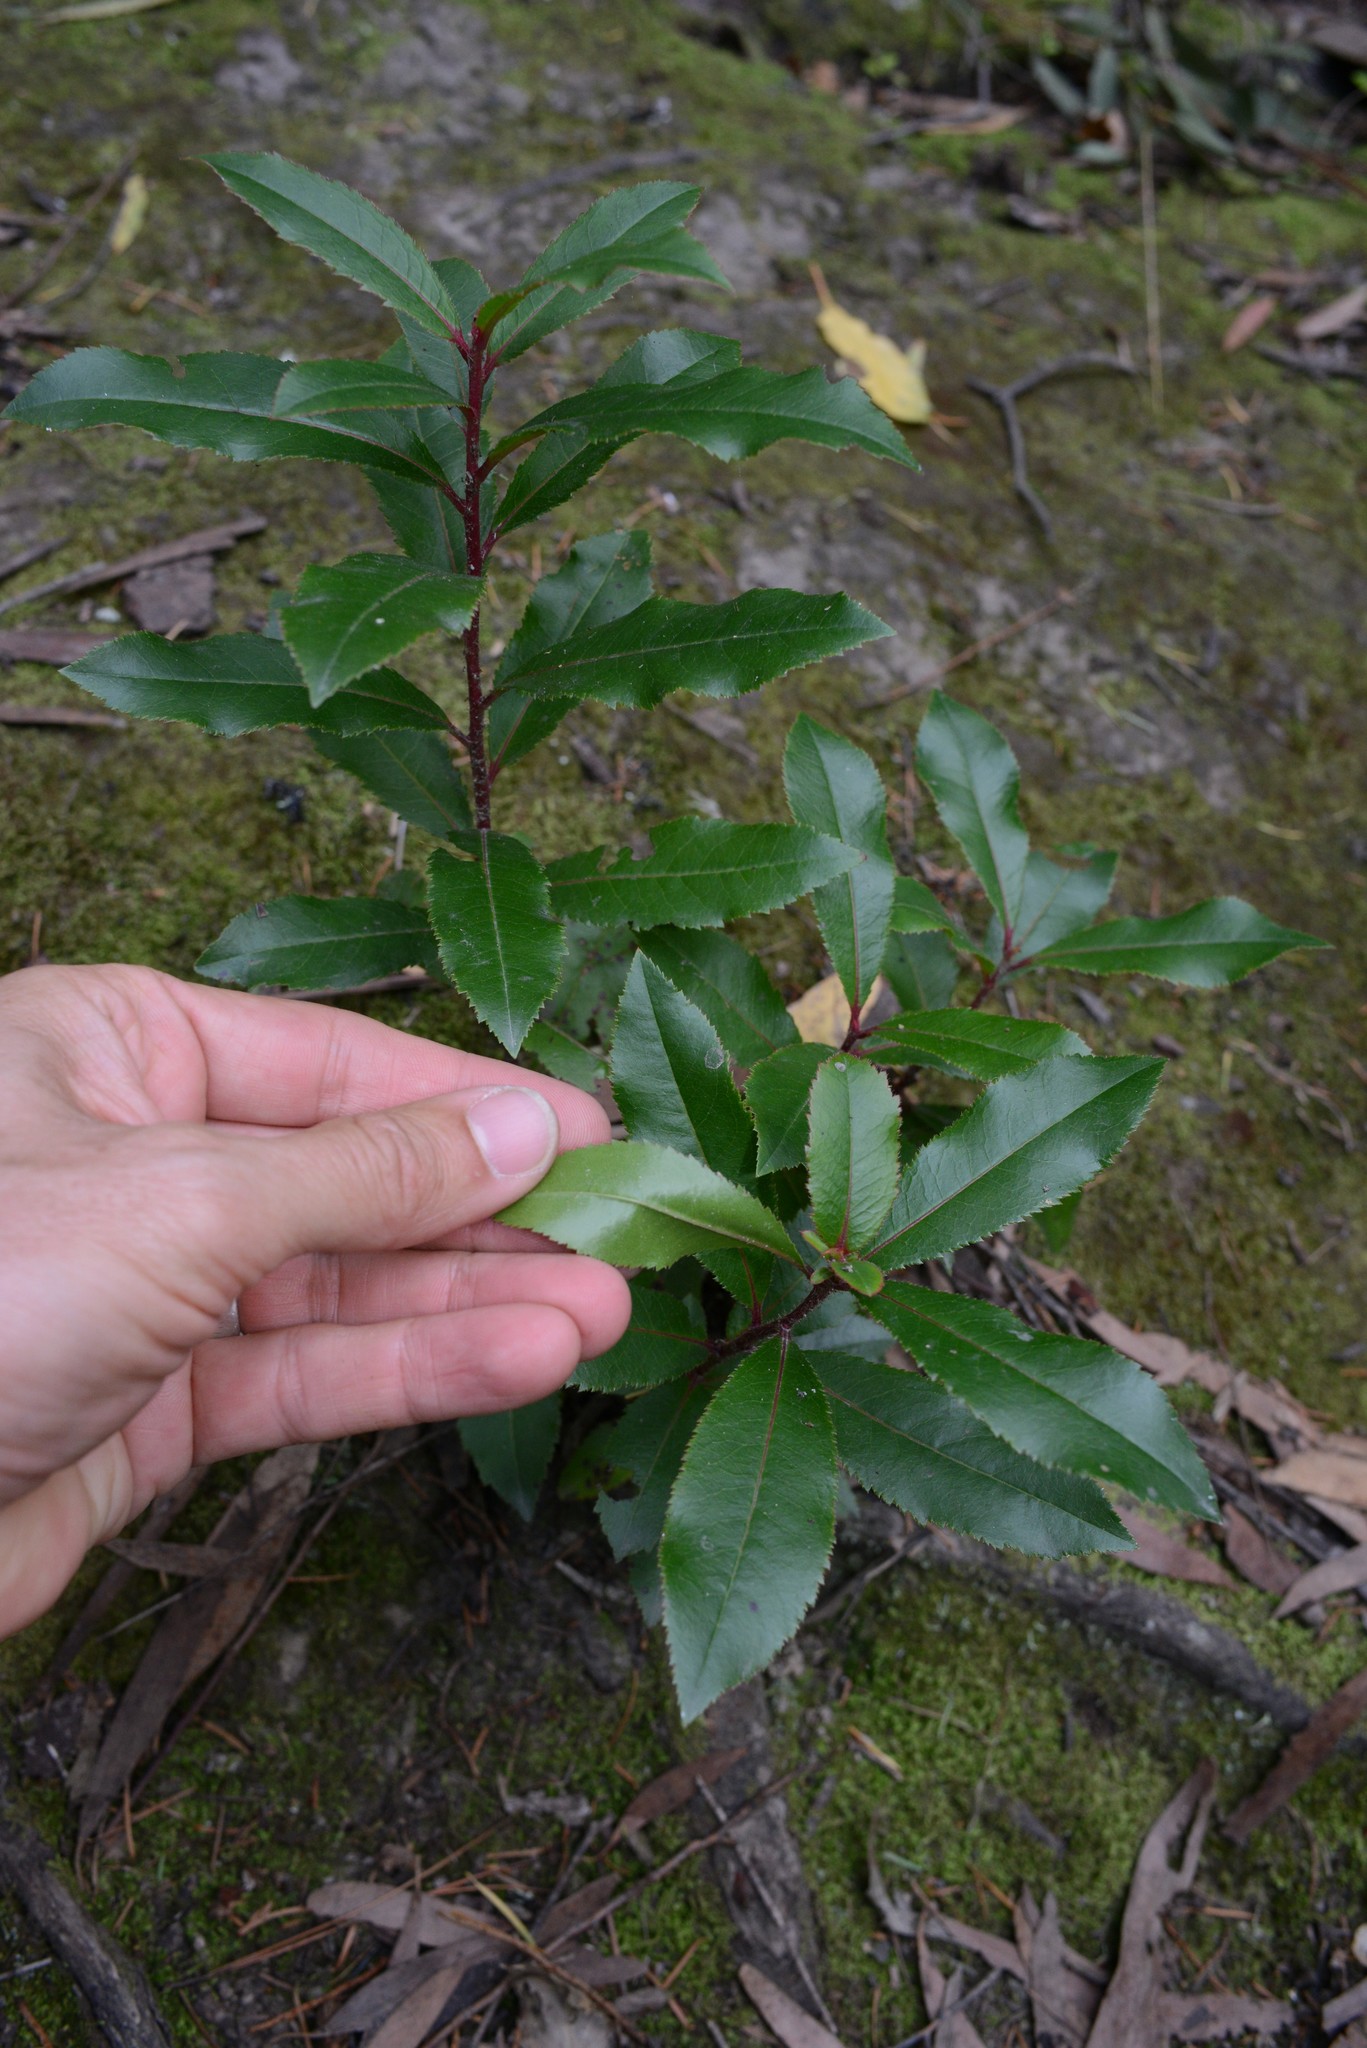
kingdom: Plantae
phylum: Tracheophyta
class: Magnoliopsida
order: Ericales
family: Ericaceae
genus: Arbutus
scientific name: Arbutus unedo
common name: Strawberry-tree
